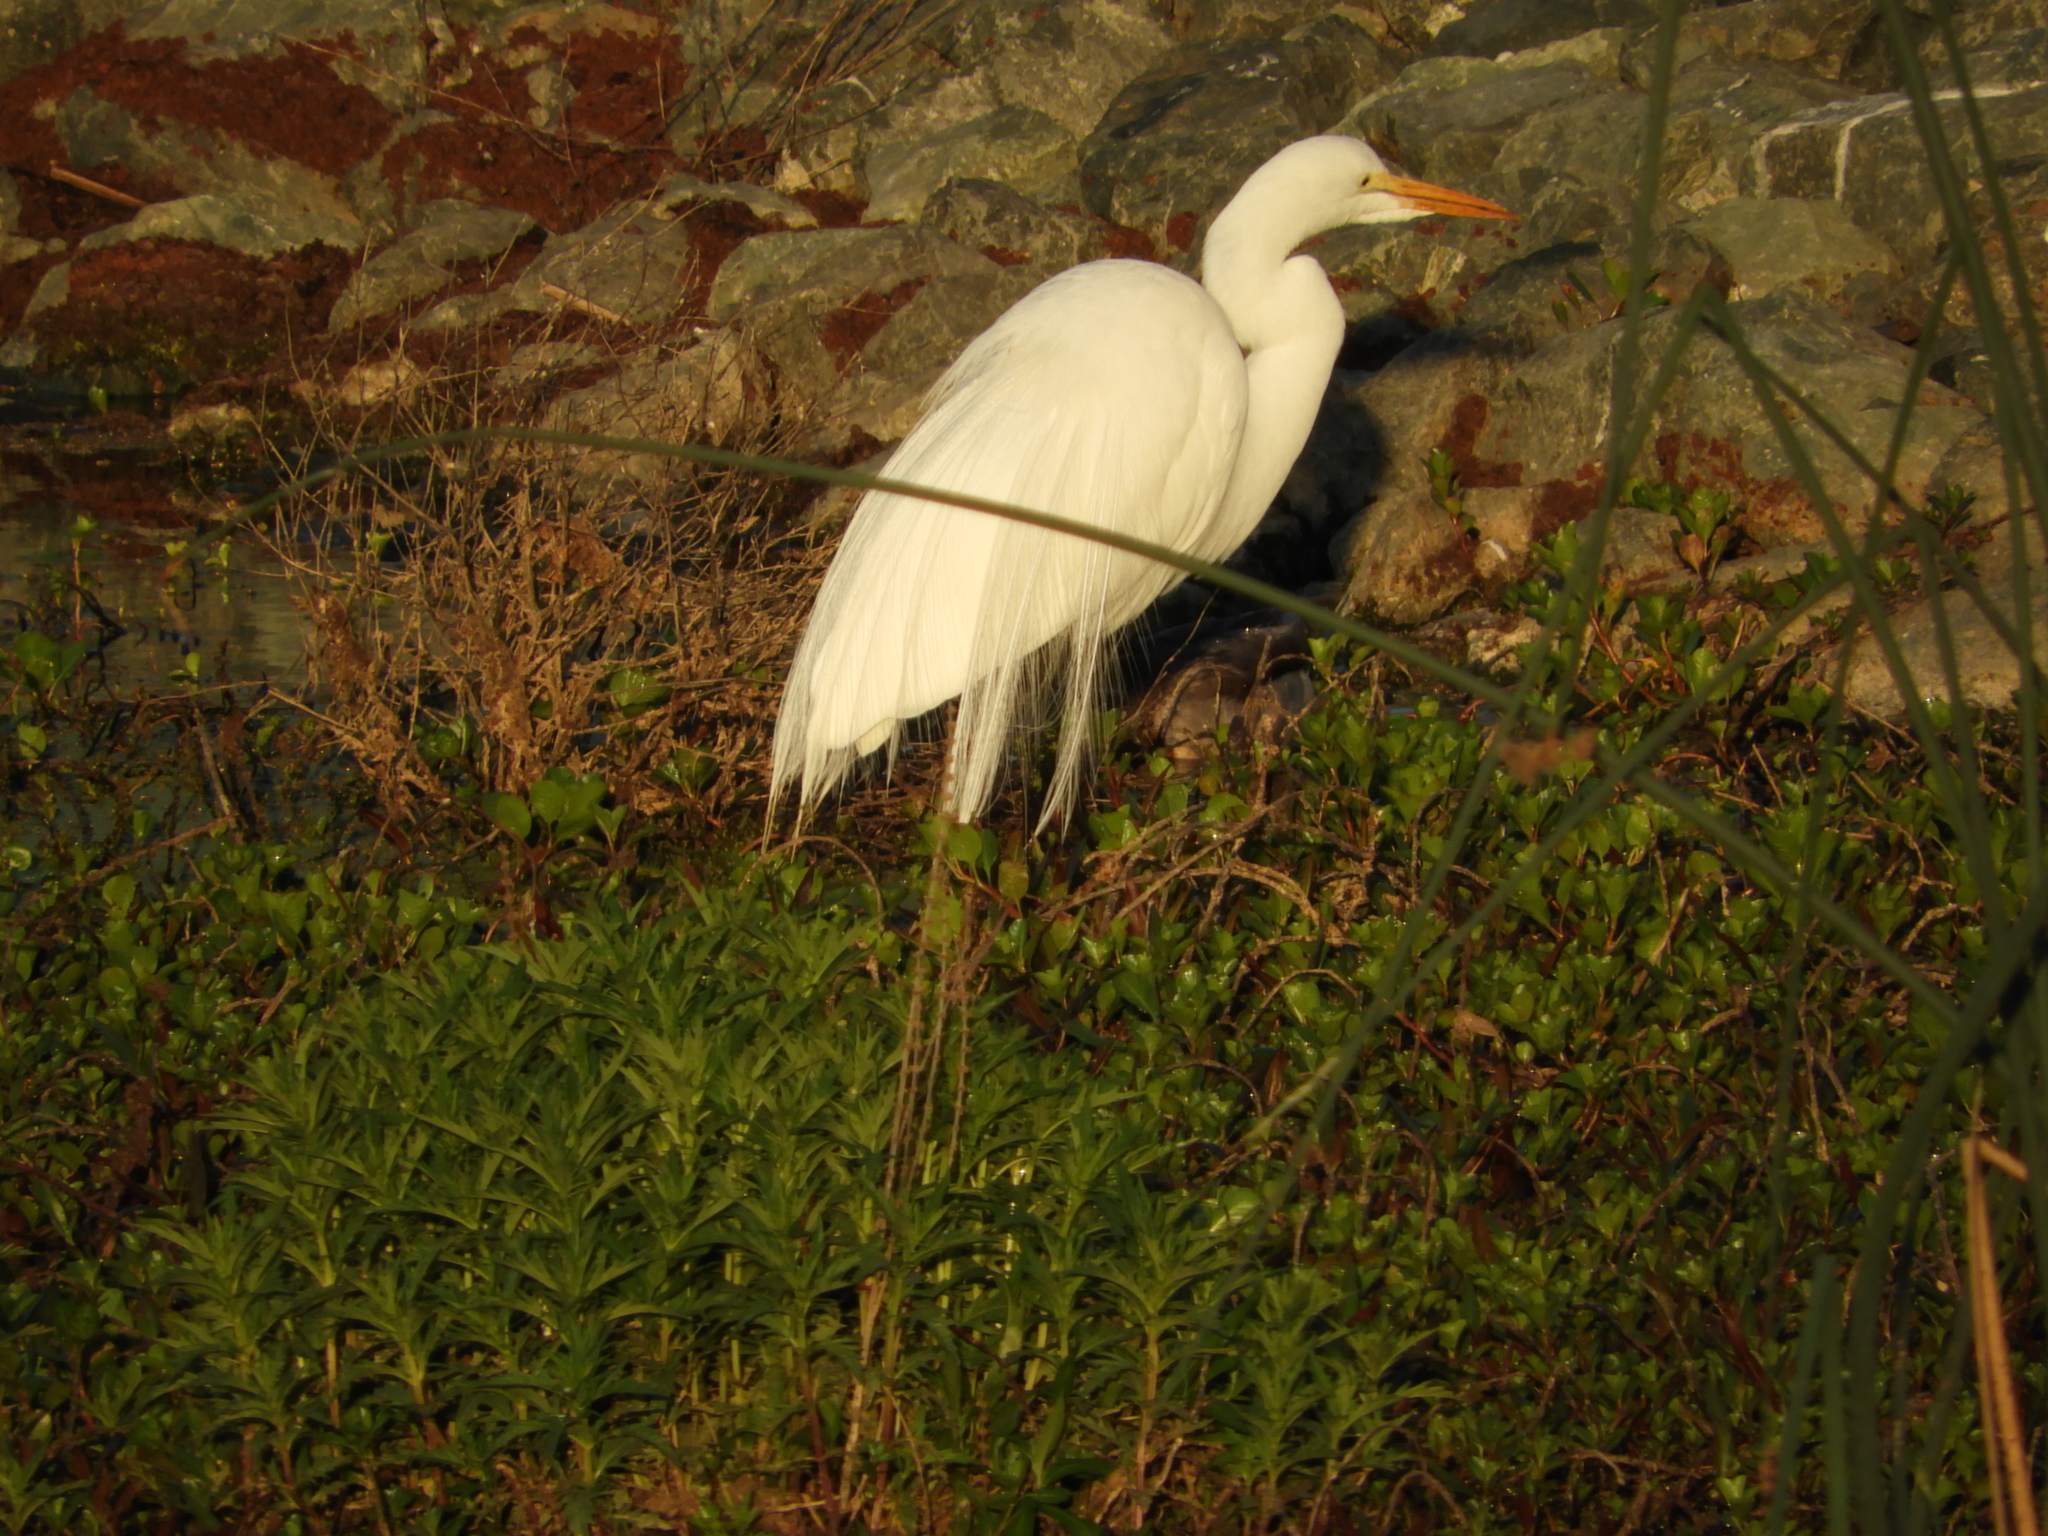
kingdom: Animalia
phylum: Chordata
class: Aves
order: Pelecaniformes
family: Ardeidae
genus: Ardea
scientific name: Ardea alba
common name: Great egret
